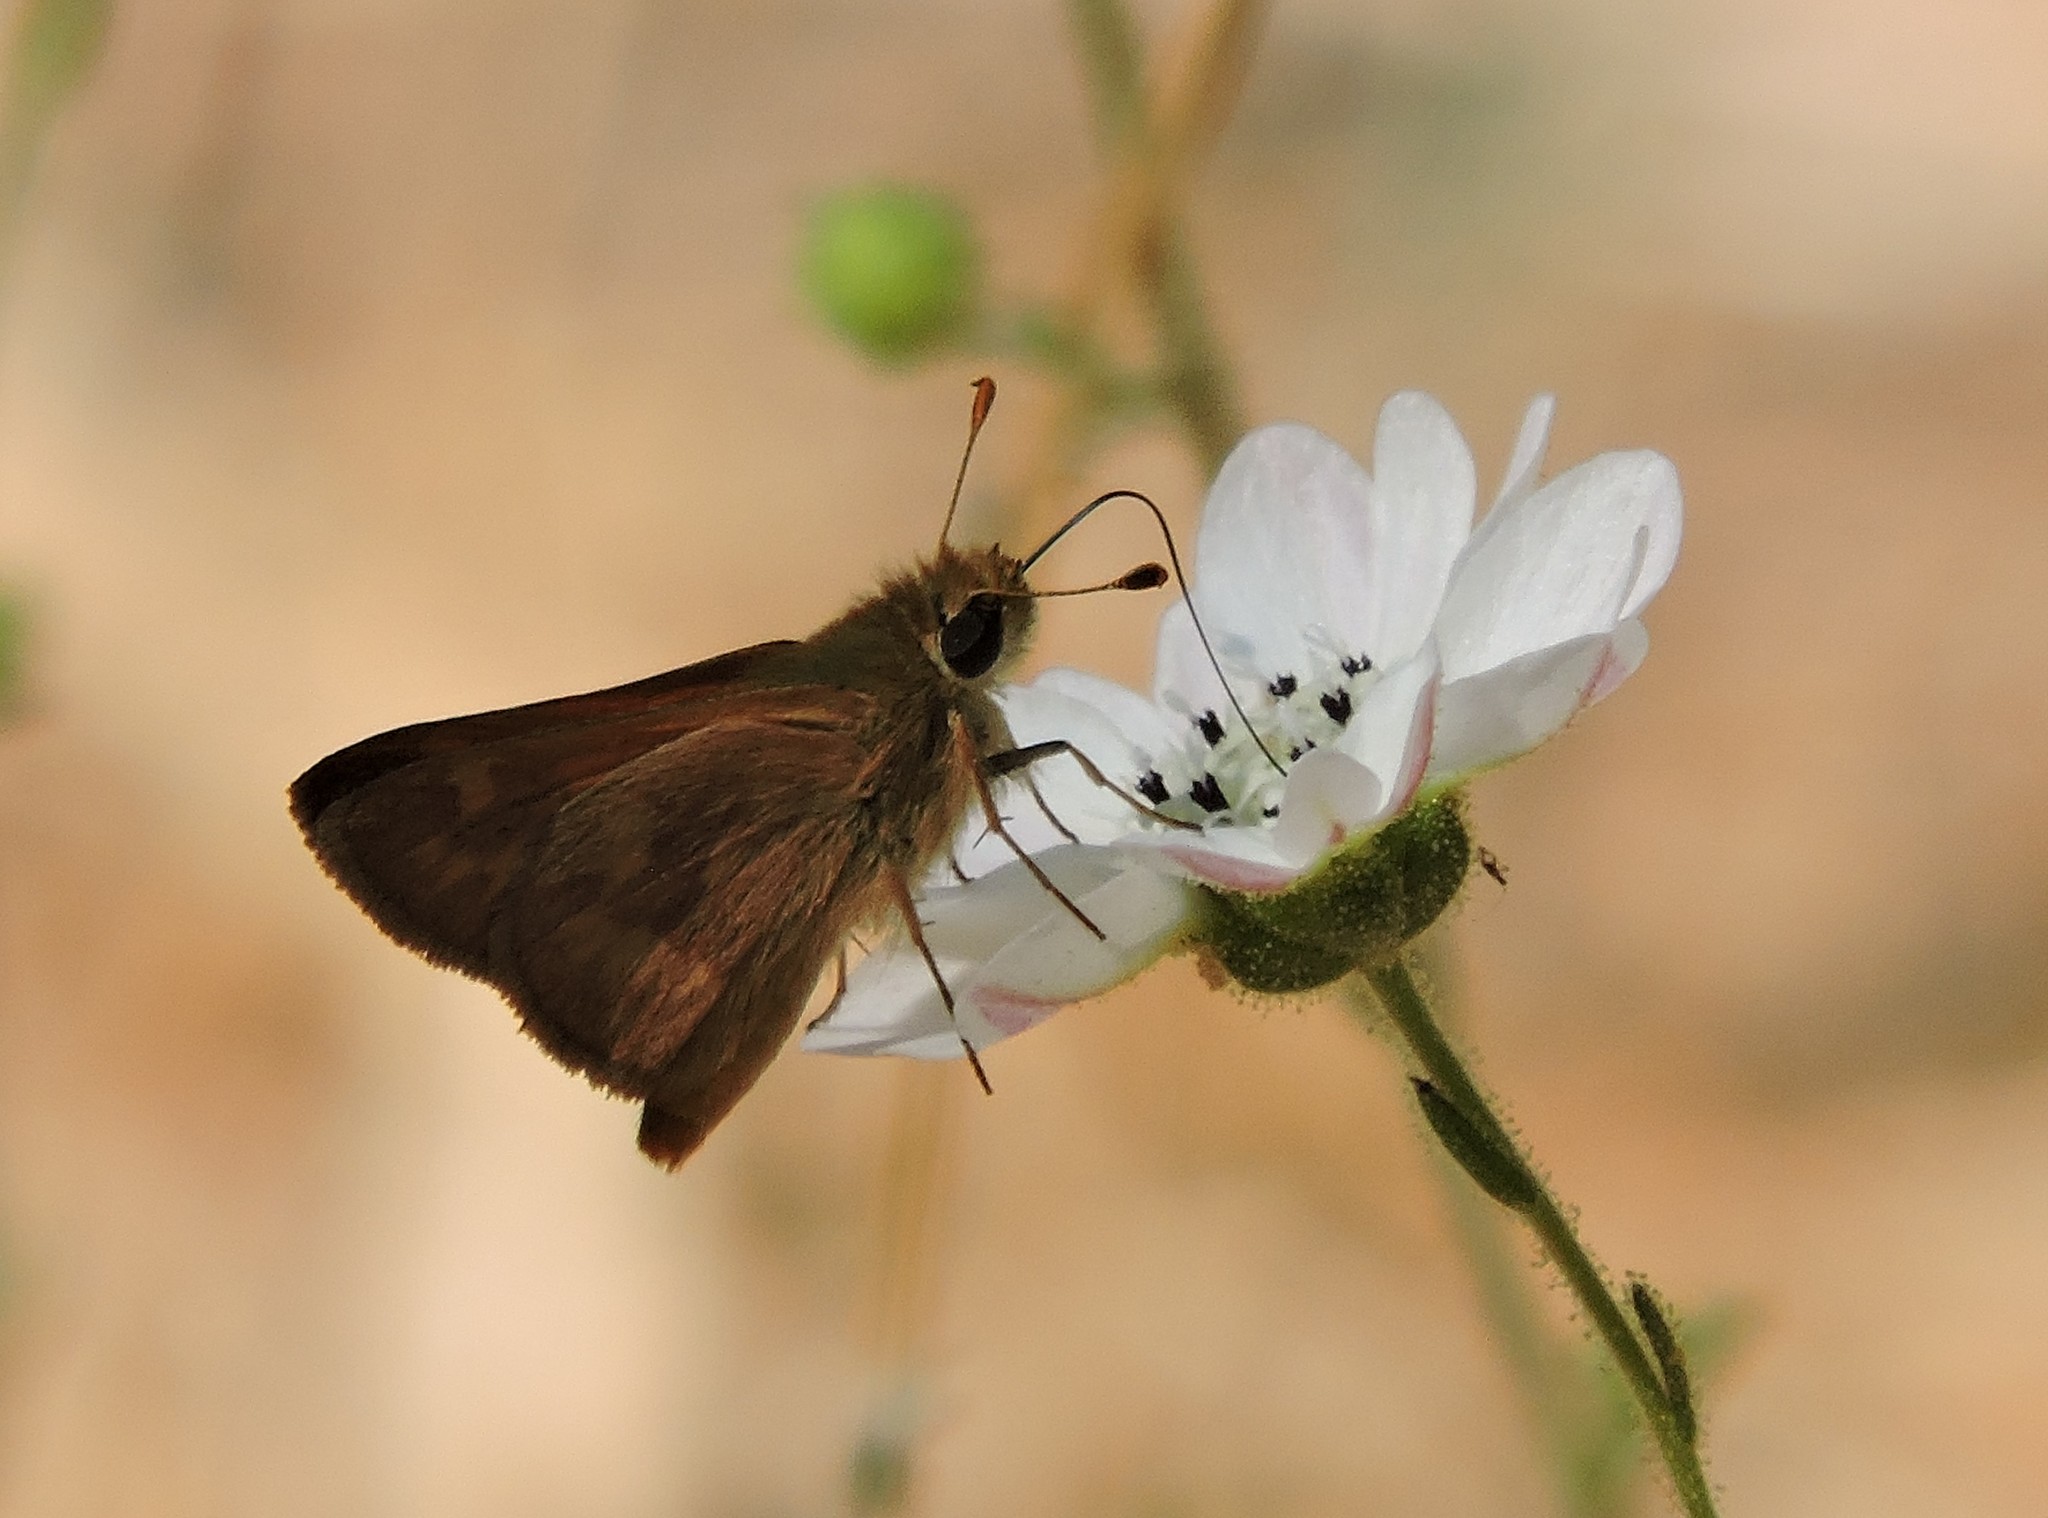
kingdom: Animalia
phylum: Arthropoda
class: Insecta
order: Lepidoptera
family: Hesperiidae
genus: Ochlodes
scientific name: Ochlodes sylvanoides
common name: Woodland skipper
